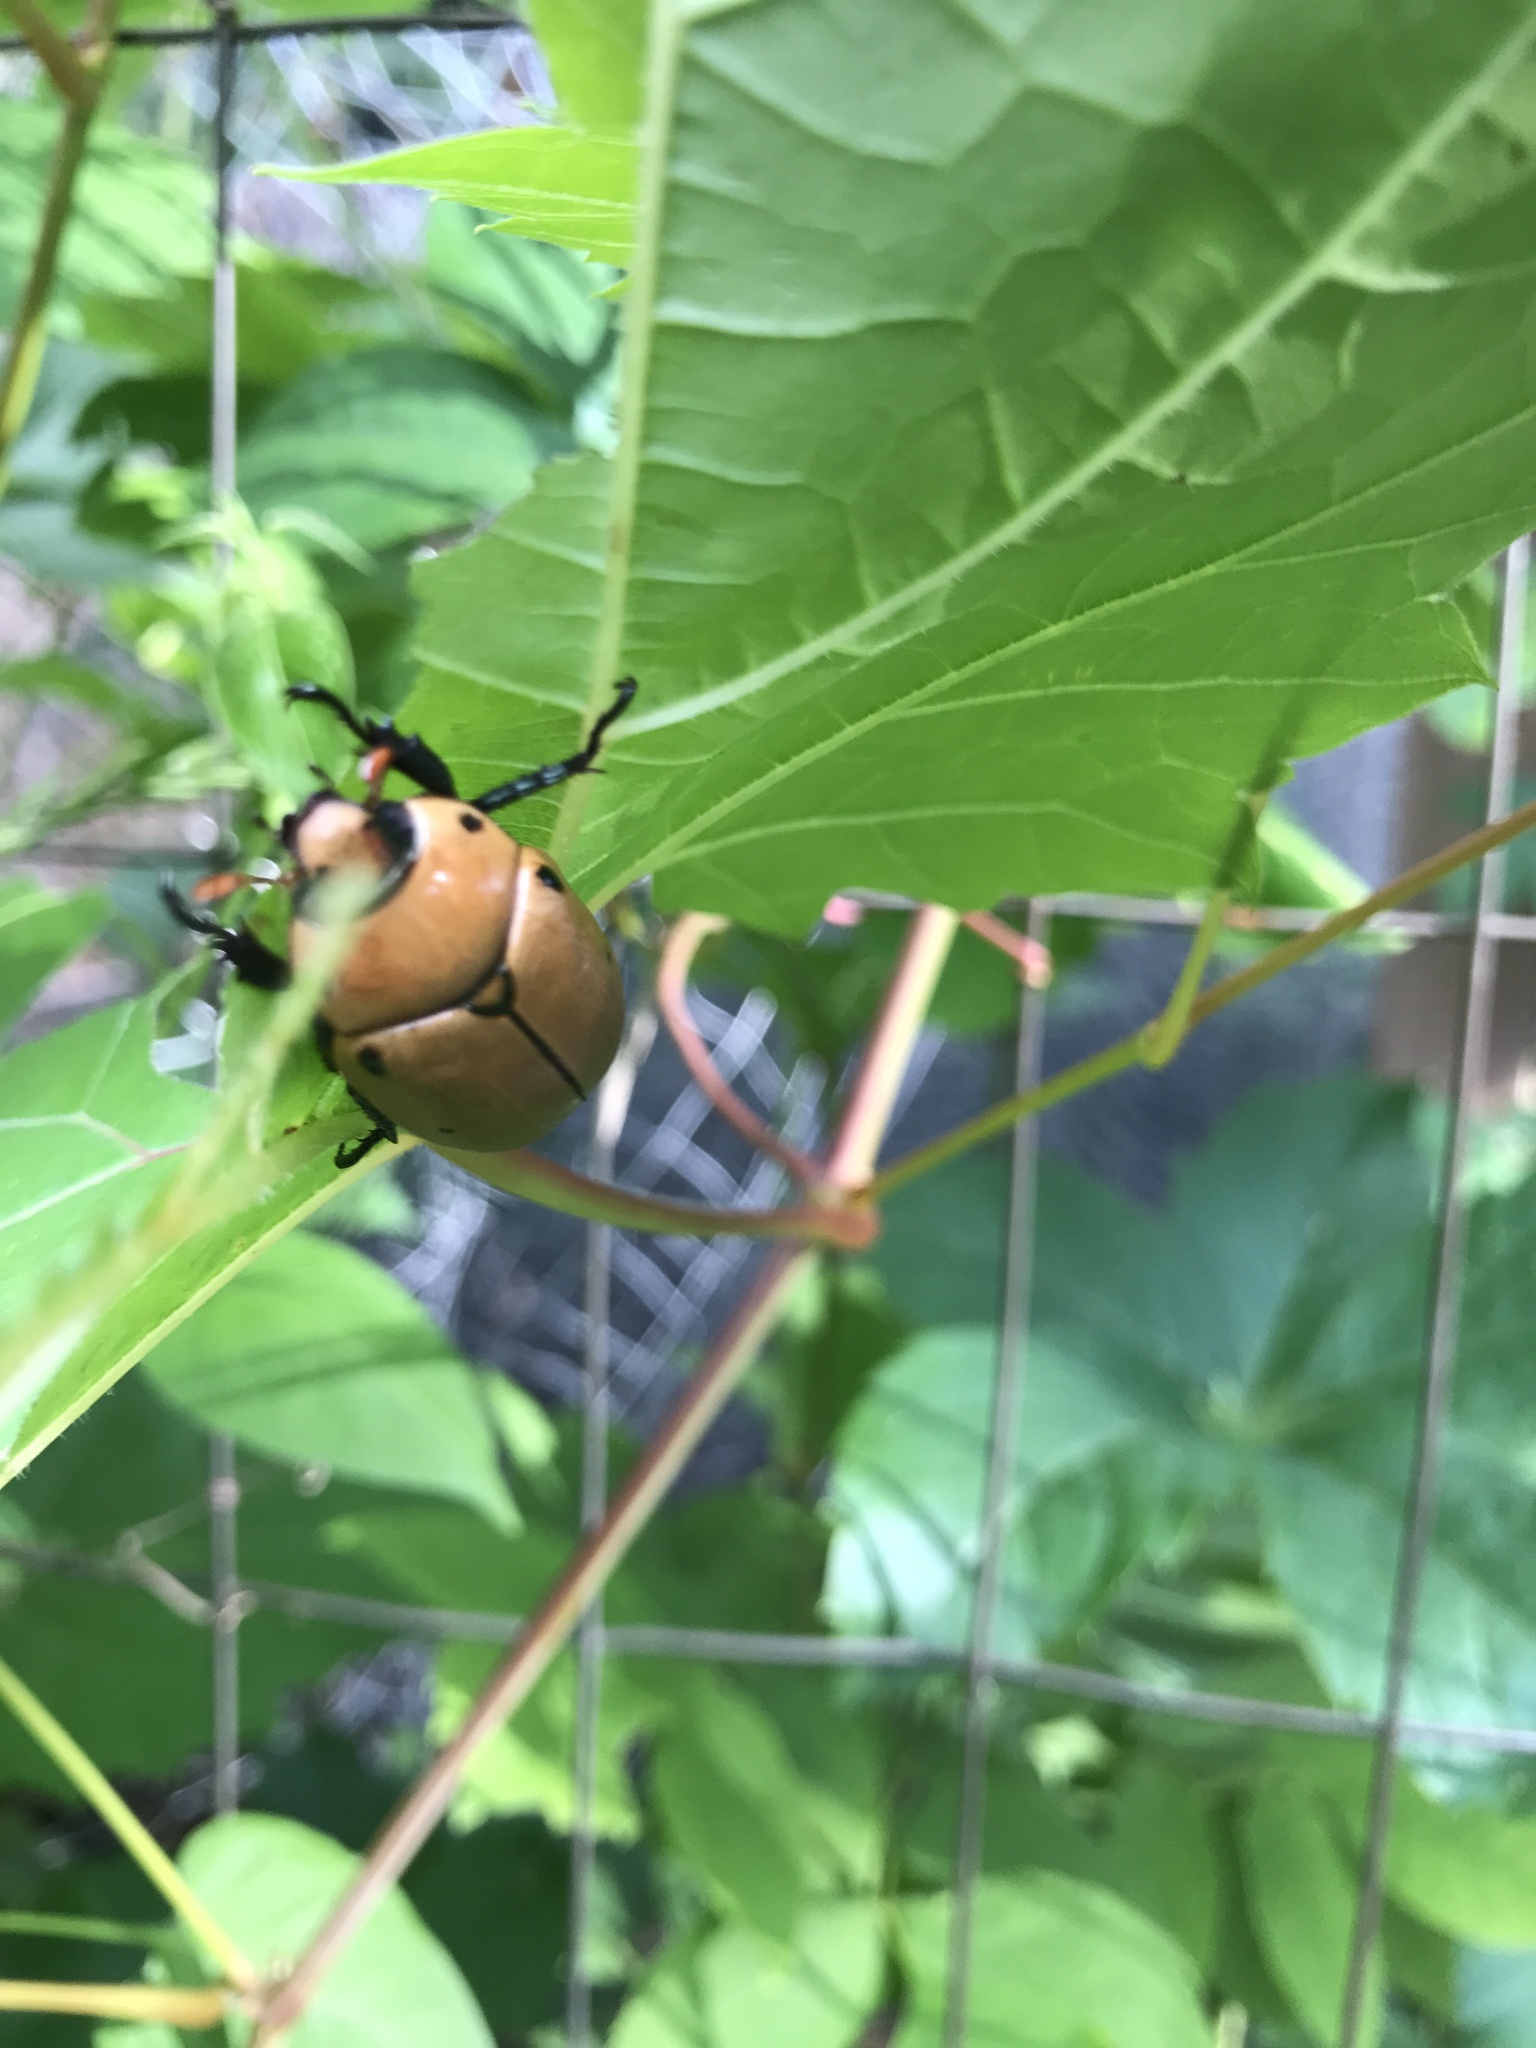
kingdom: Animalia
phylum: Arthropoda
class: Insecta
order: Coleoptera
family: Scarabaeidae
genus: Pelidnota
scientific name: Pelidnota punctata
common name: Grapevine beetle
